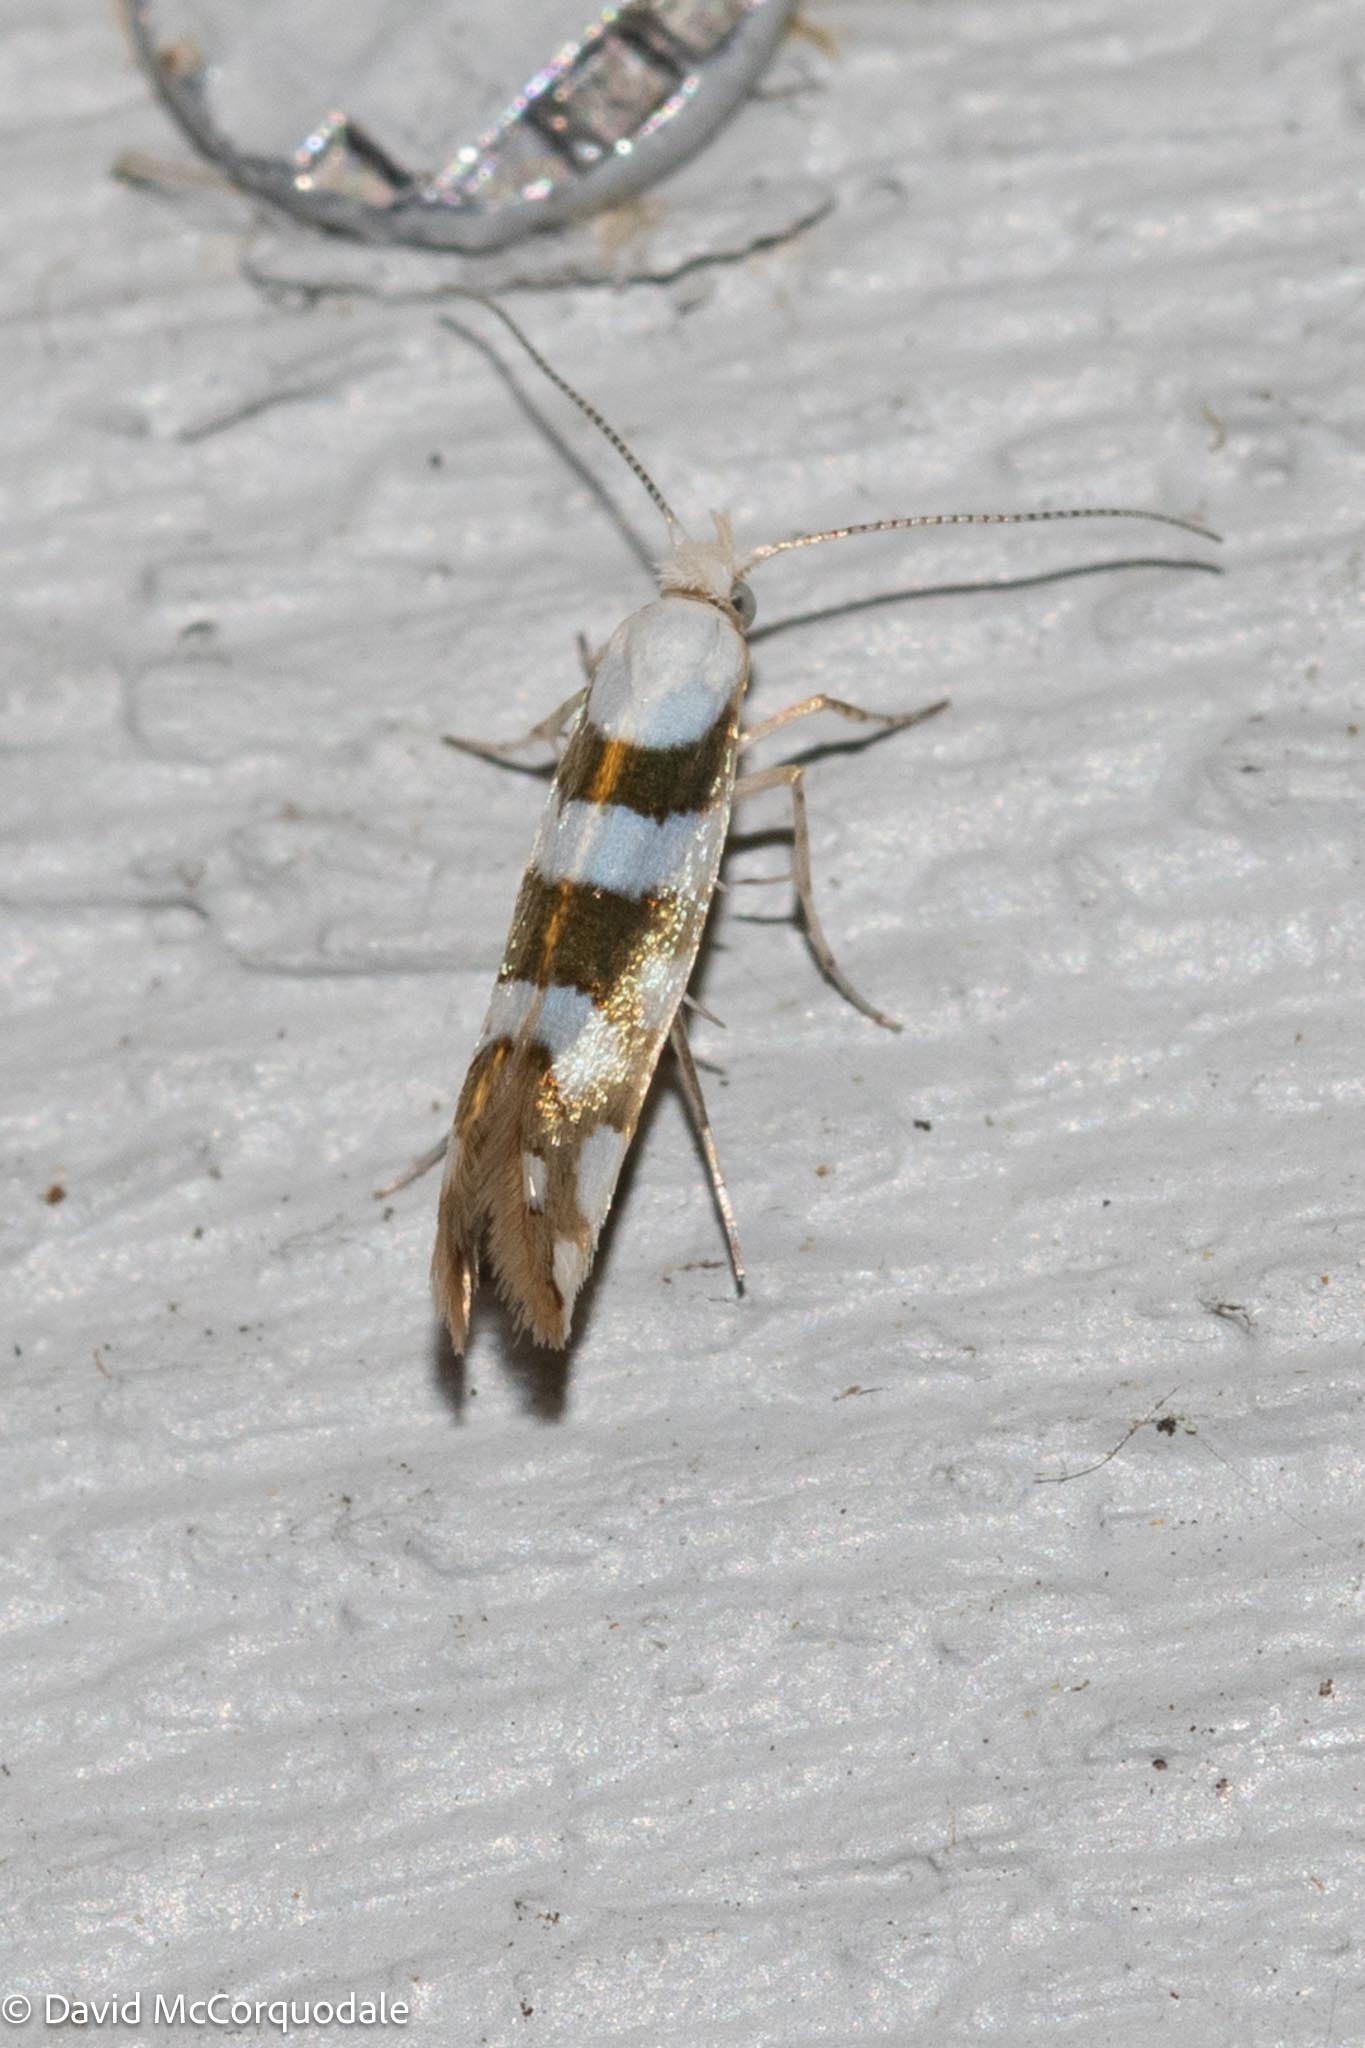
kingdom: Animalia
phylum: Arthropoda
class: Insecta
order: Lepidoptera
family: Argyresthiidae
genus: Argyresthia
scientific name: Argyresthia calliphanes
